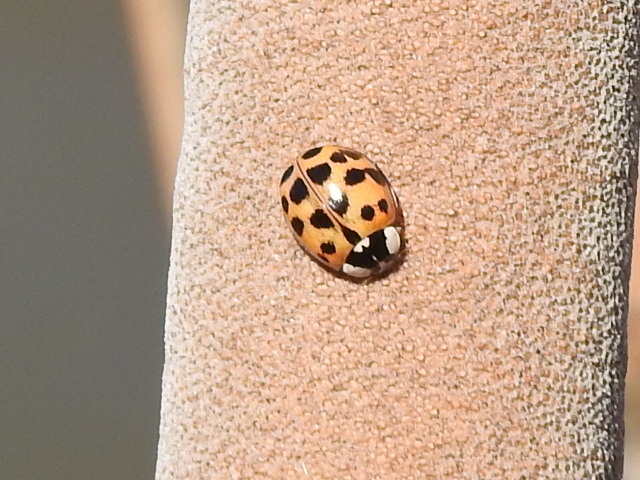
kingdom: Animalia
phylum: Arthropoda
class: Insecta
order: Coleoptera
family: Coccinellidae
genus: Harmonia
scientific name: Harmonia axyridis
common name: Harlequin ladybird
